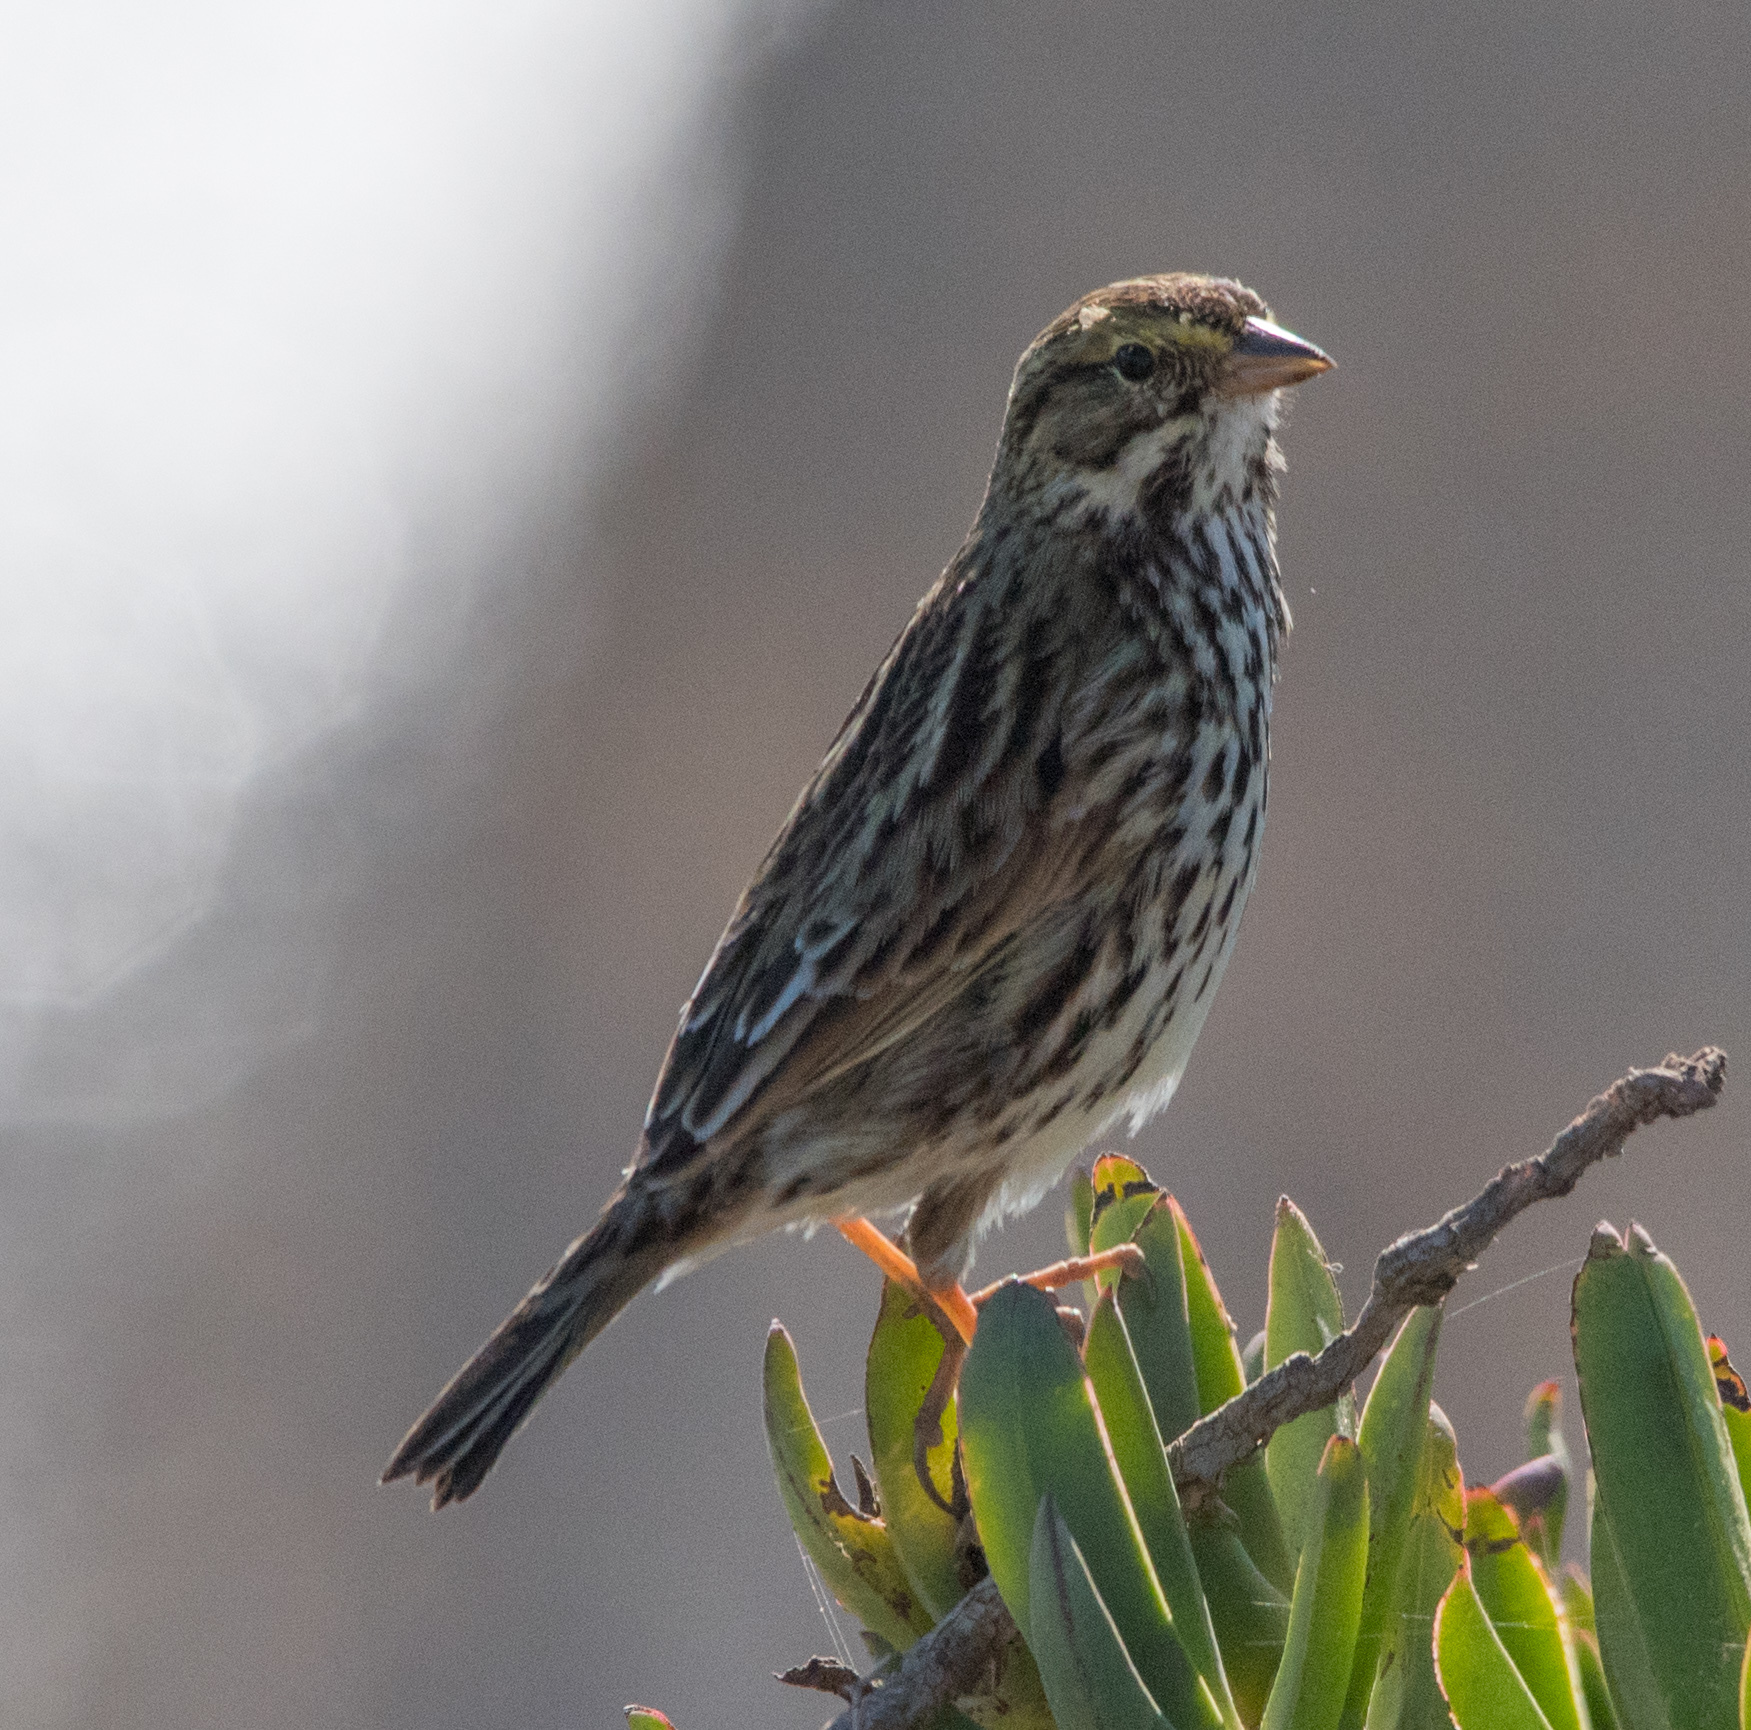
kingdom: Animalia
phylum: Chordata
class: Aves
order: Passeriformes
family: Passerellidae
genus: Passerculus
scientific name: Passerculus sandwichensis
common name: Savannah sparrow
